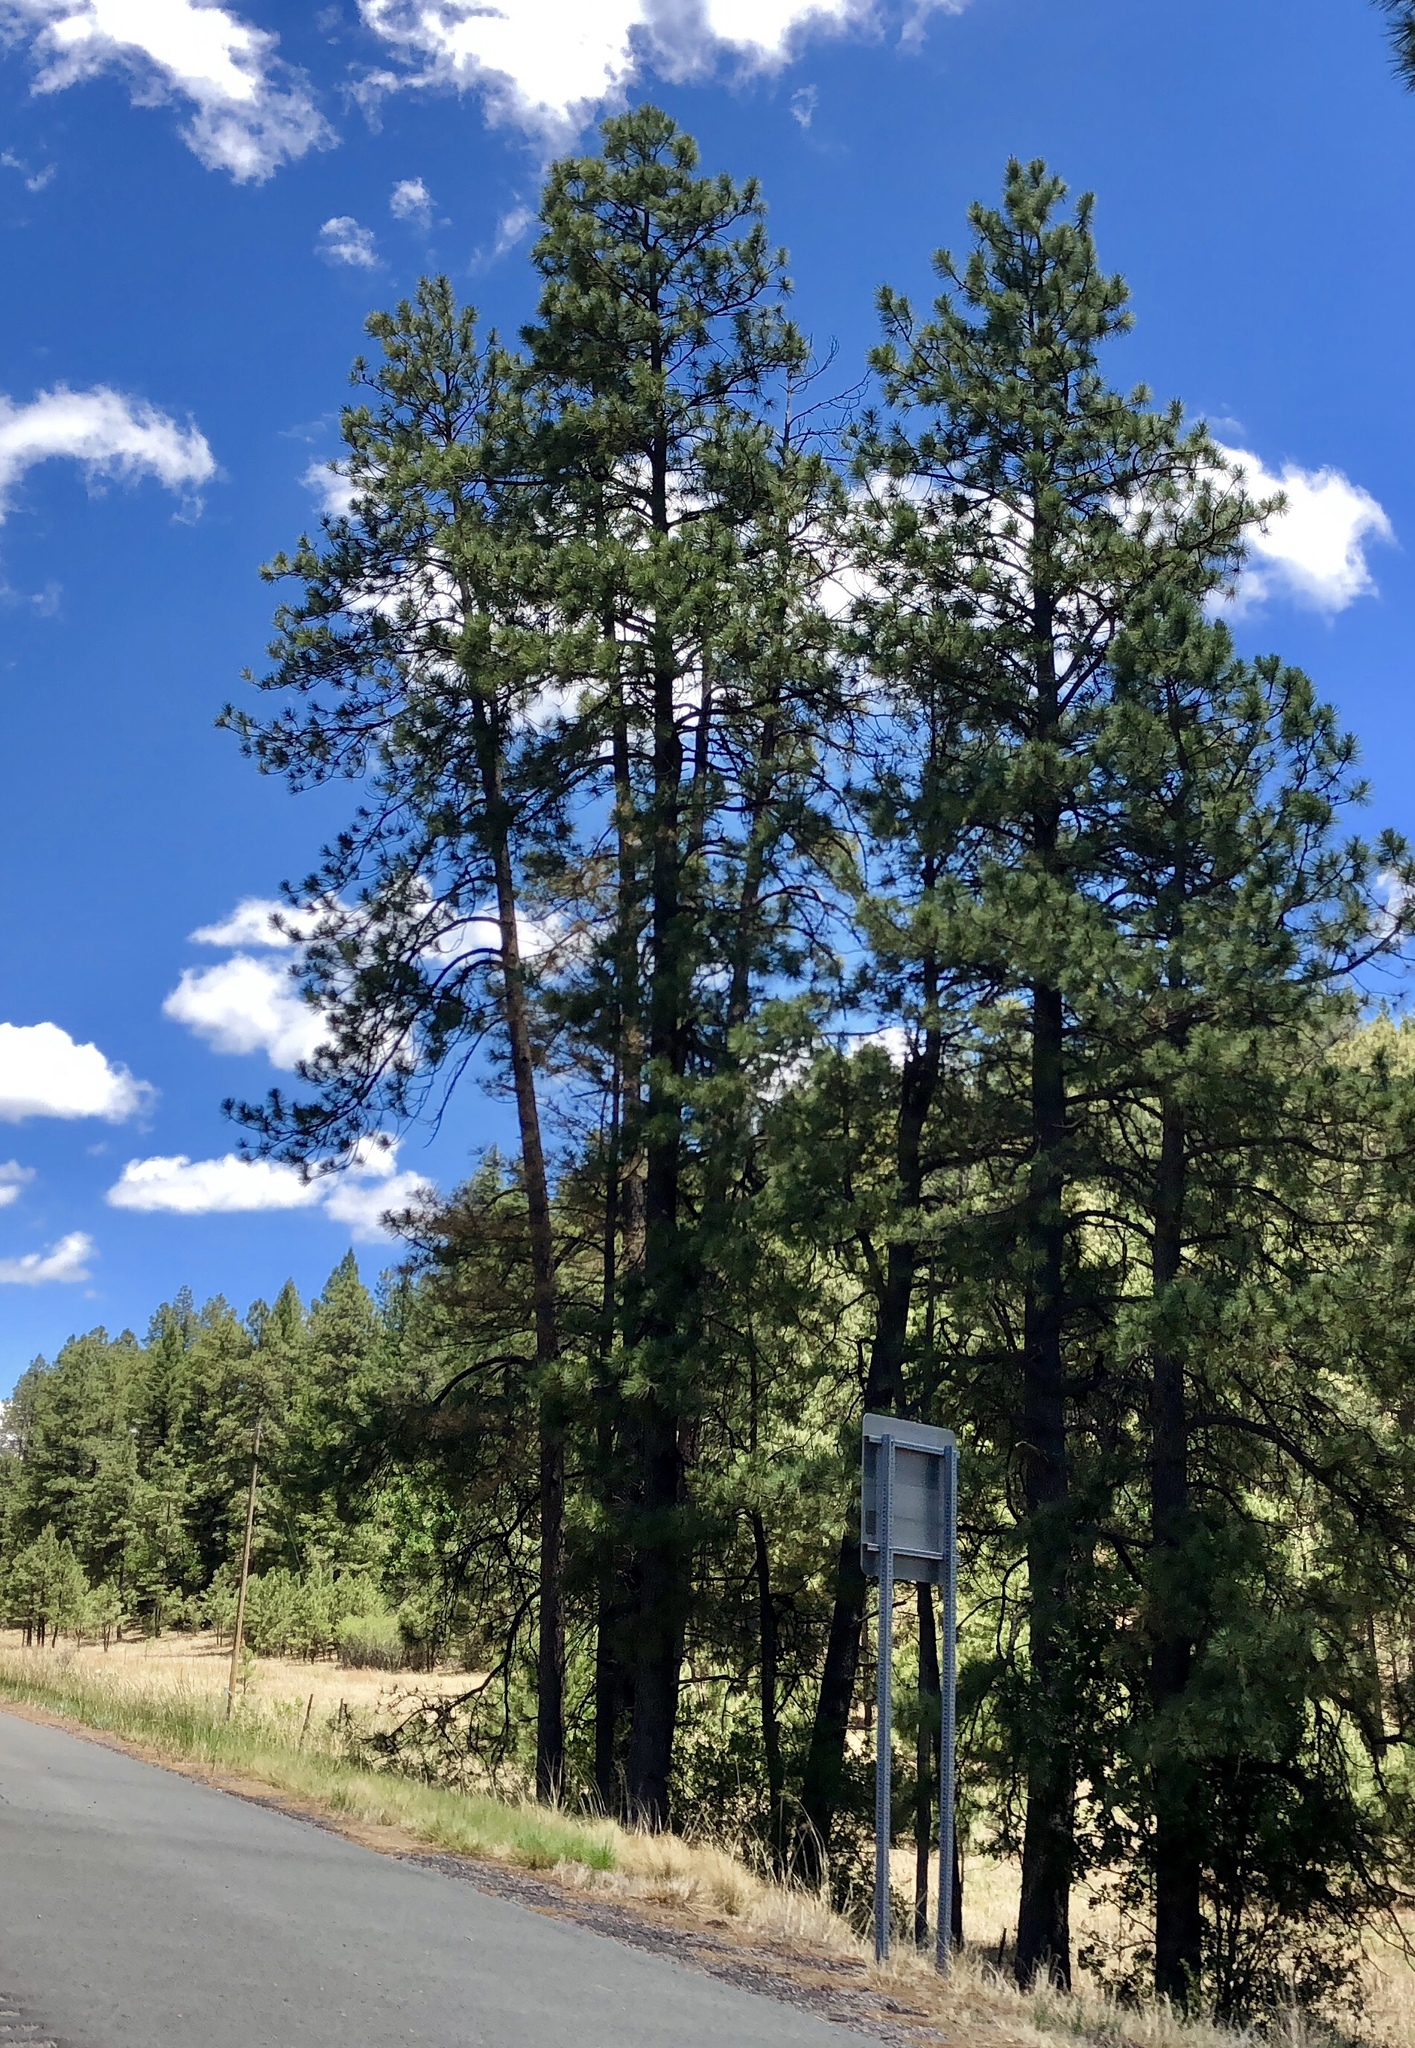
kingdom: Plantae
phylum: Tracheophyta
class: Pinopsida
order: Pinales
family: Pinaceae
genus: Pinus
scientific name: Pinus ponderosa
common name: Western yellow-pine
